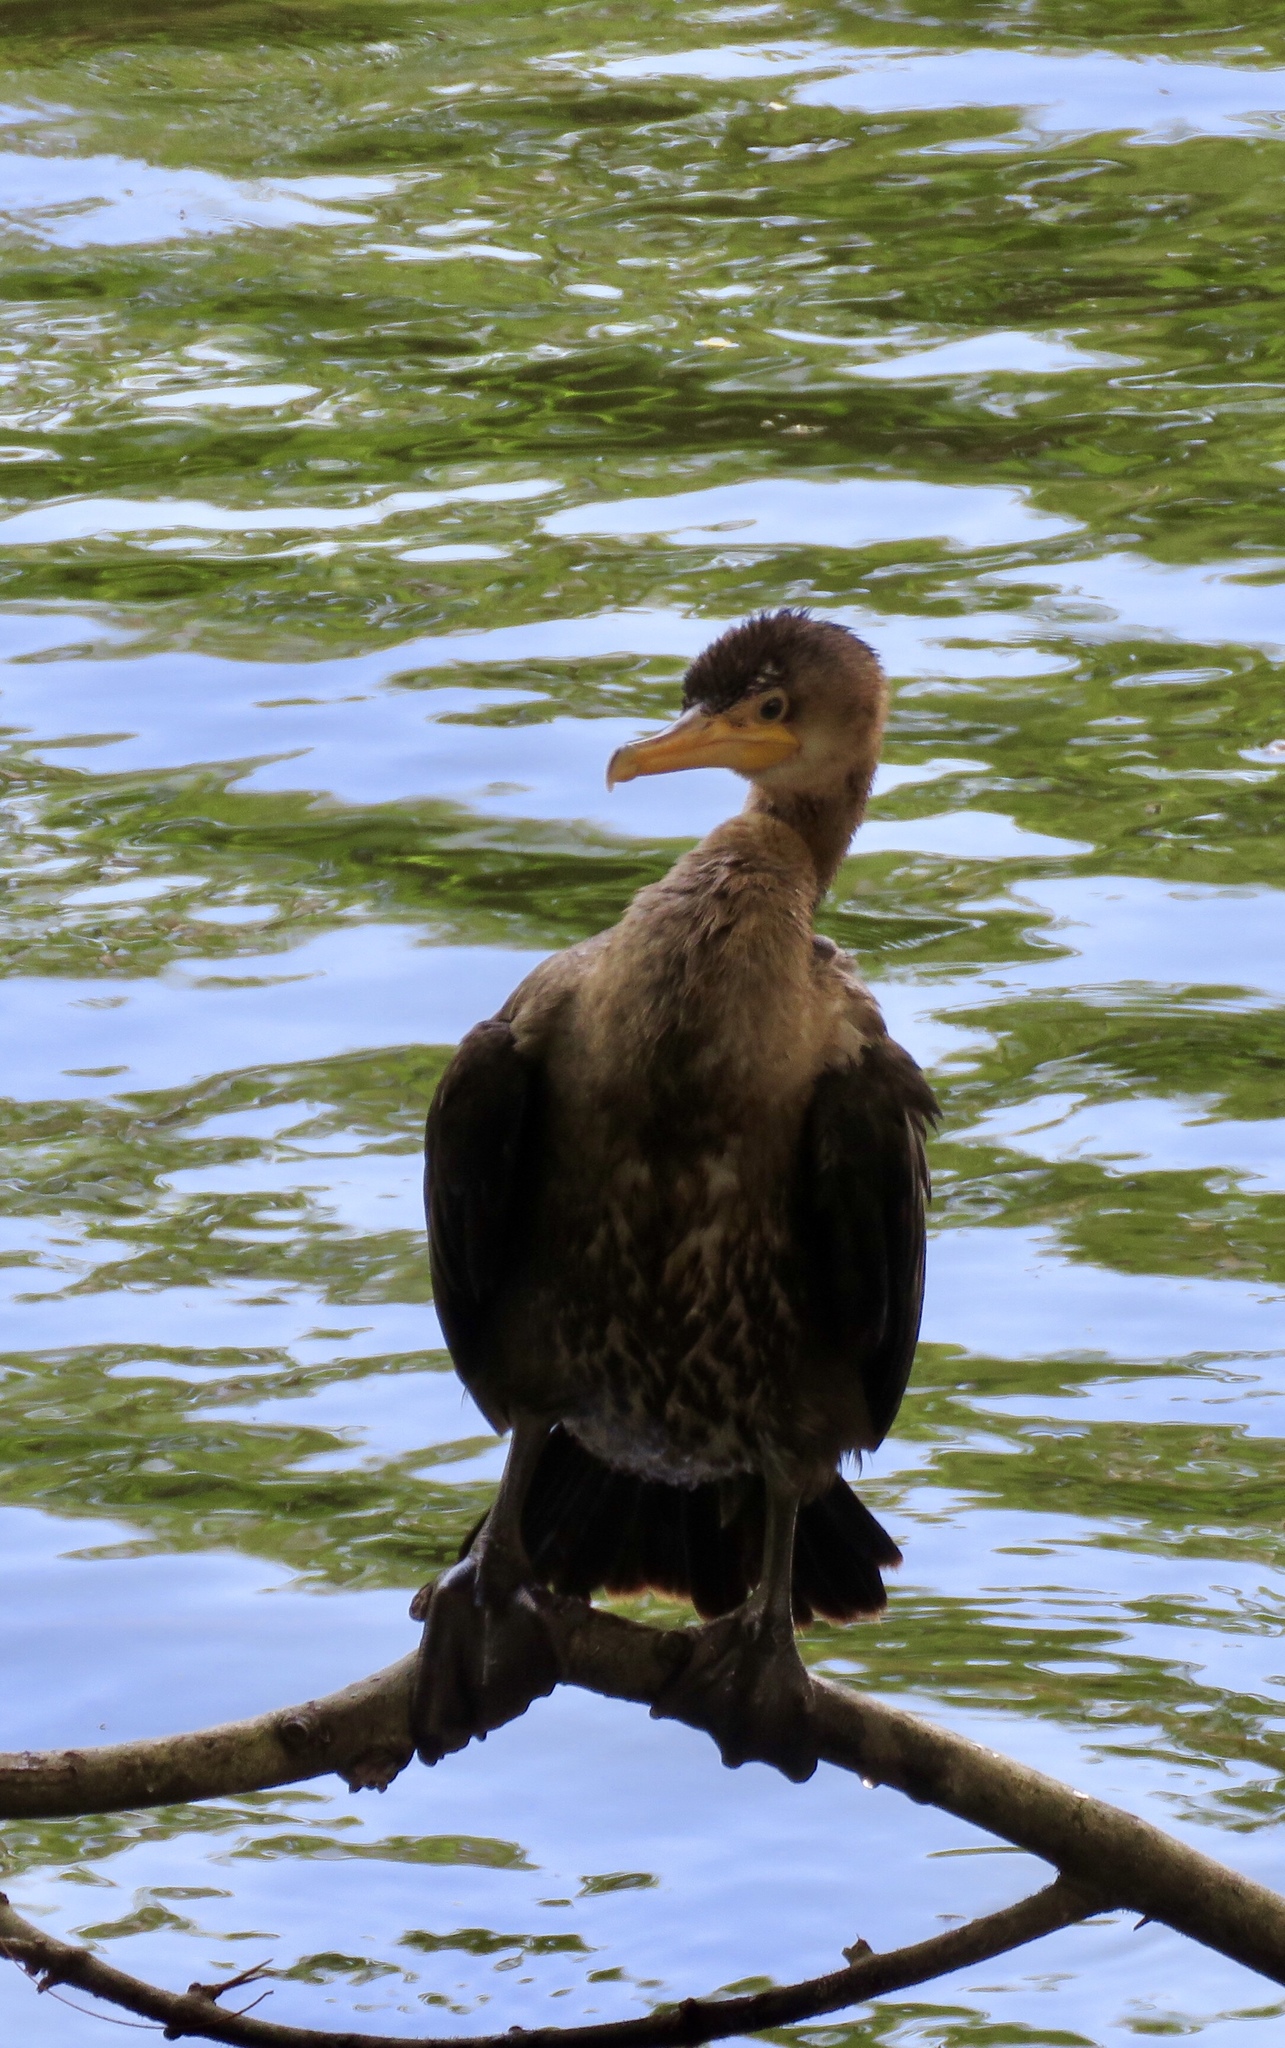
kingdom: Animalia
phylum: Chordata
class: Aves
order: Suliformes
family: Phalacrocoracidae
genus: Phalacrocorax
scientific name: Phalacrocorax brasilianus
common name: Neotropic cormorant
